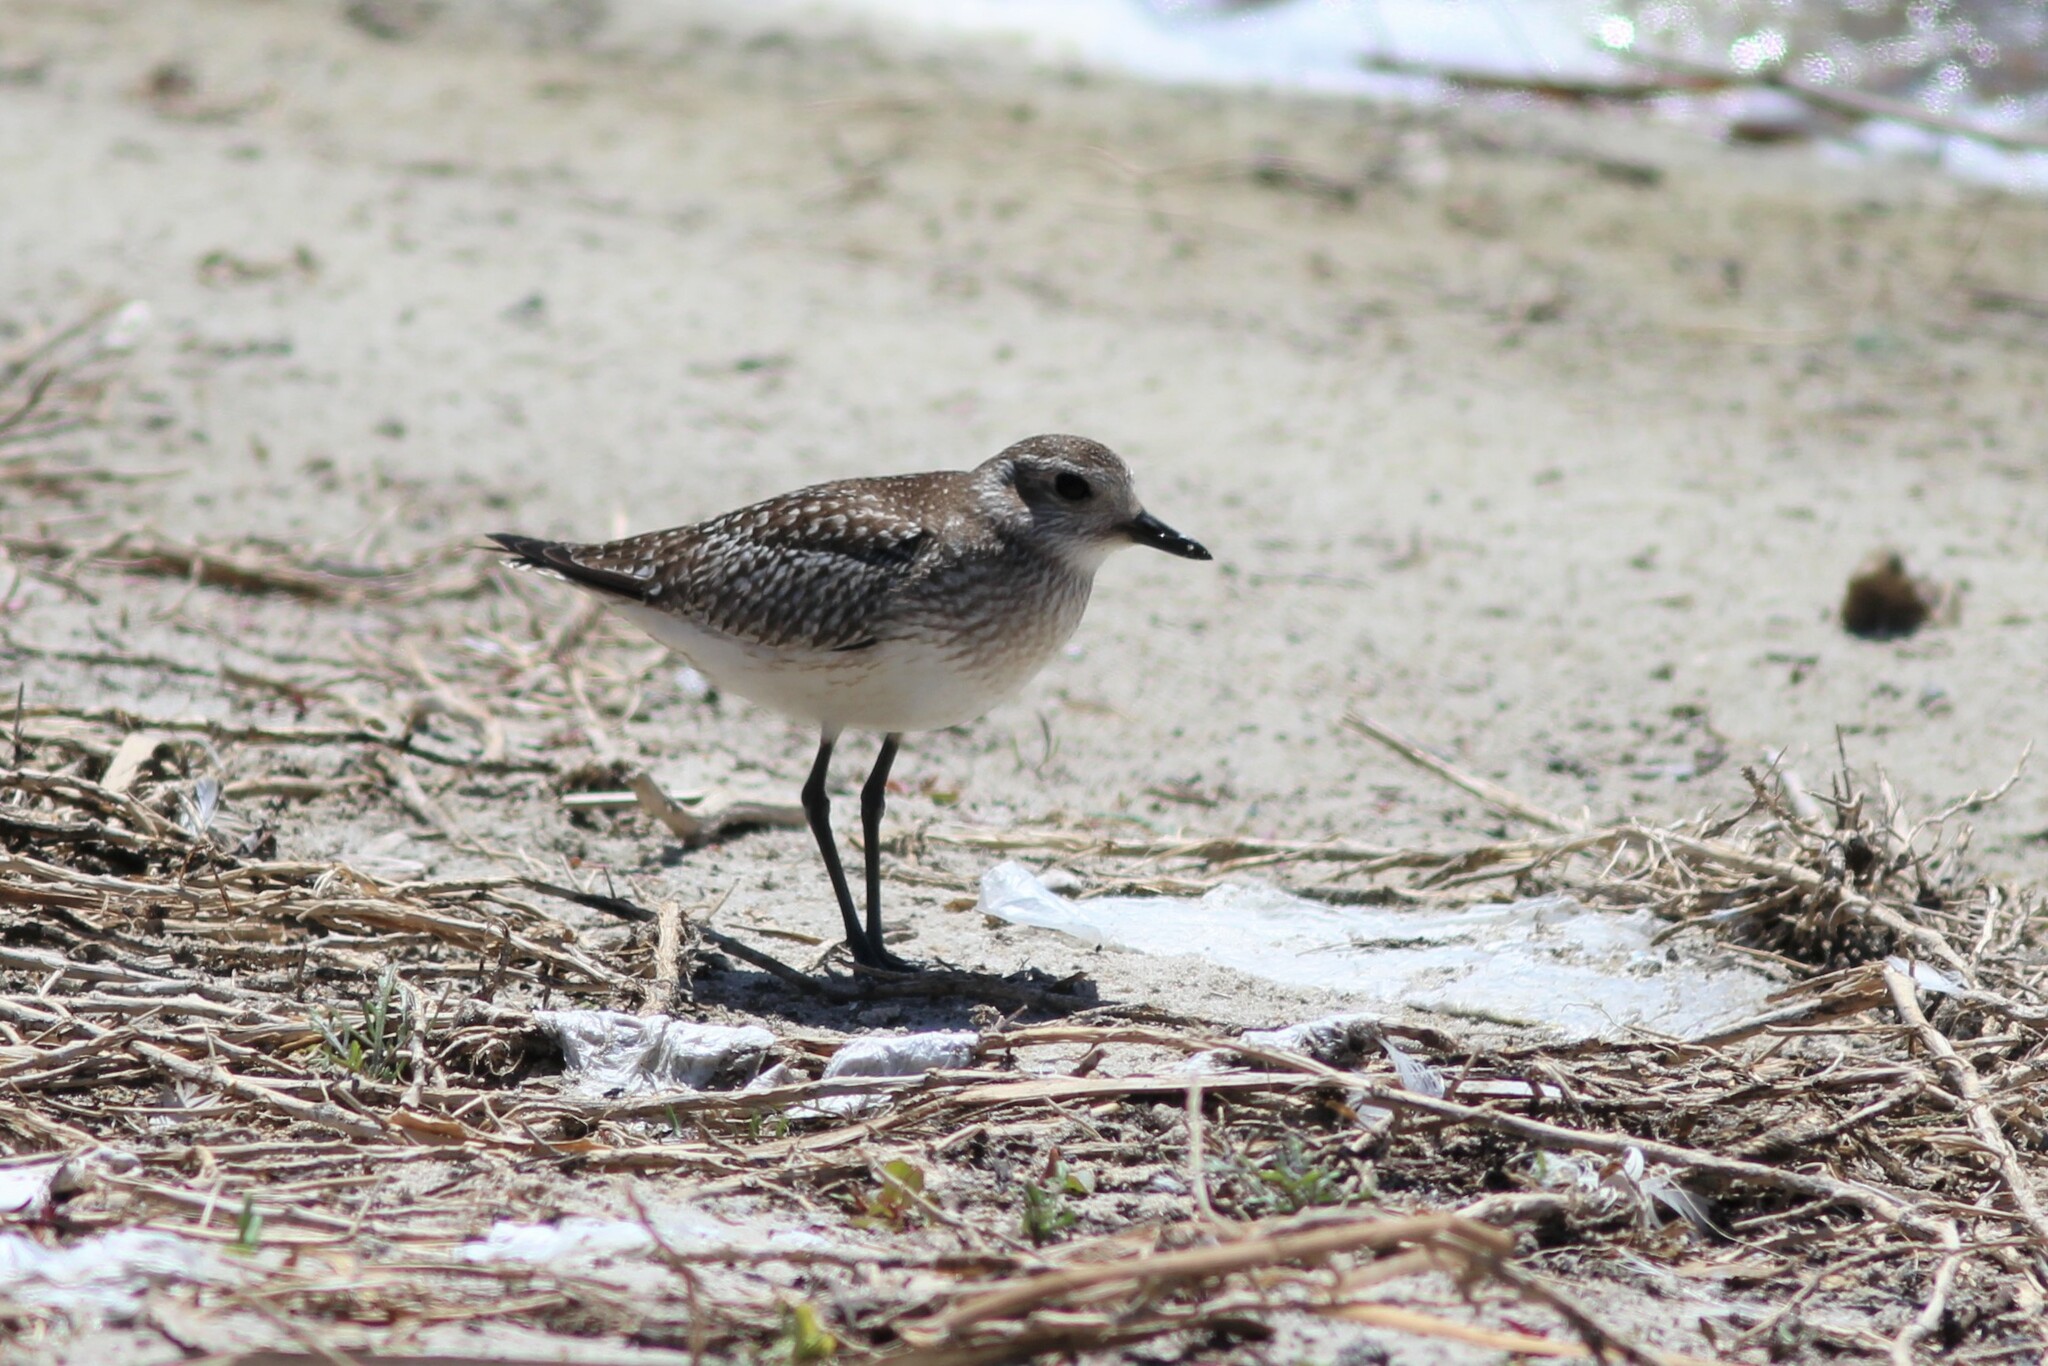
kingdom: Animalia
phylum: Chordata
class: Aves
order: Charadriiformes
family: Charadriidae
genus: Pluvialis
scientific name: Pluvialis squatarola
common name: Grey plover
